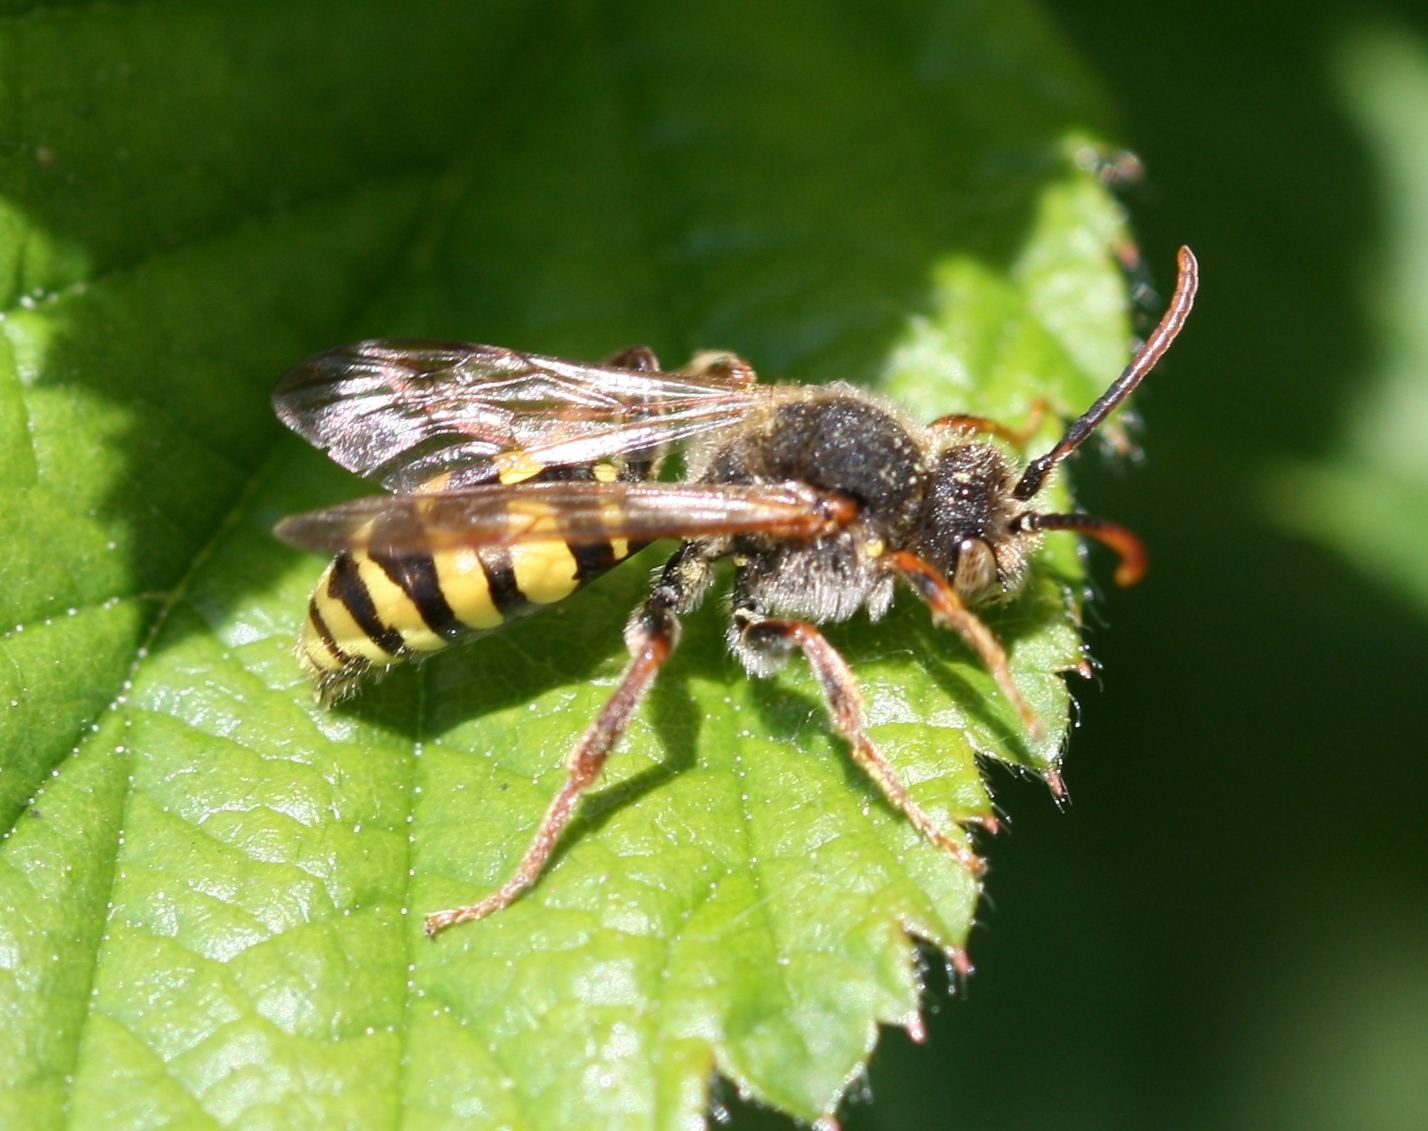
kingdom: Animalia
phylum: Arthropoda
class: Insecta
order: Hymenoptera
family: Apidae
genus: Nomada
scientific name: Nomada marshamella
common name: Marsham's nomad bee
